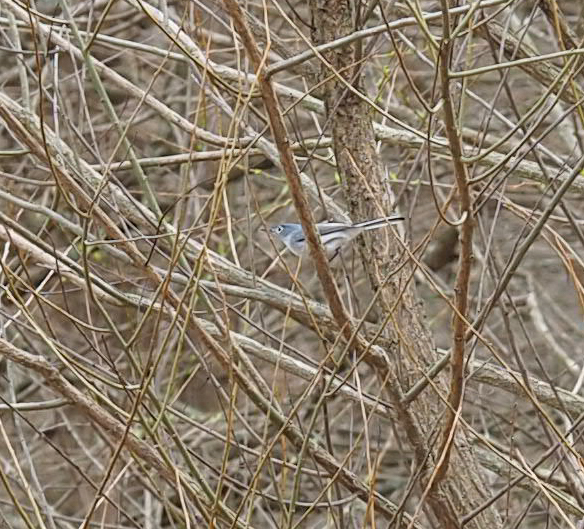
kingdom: Animalia
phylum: Chordata
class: Aves
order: Passeriformes
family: Polioptilidae
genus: Polioptila
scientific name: Polioptila caerulea
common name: Blue-gray gnatcatcher
